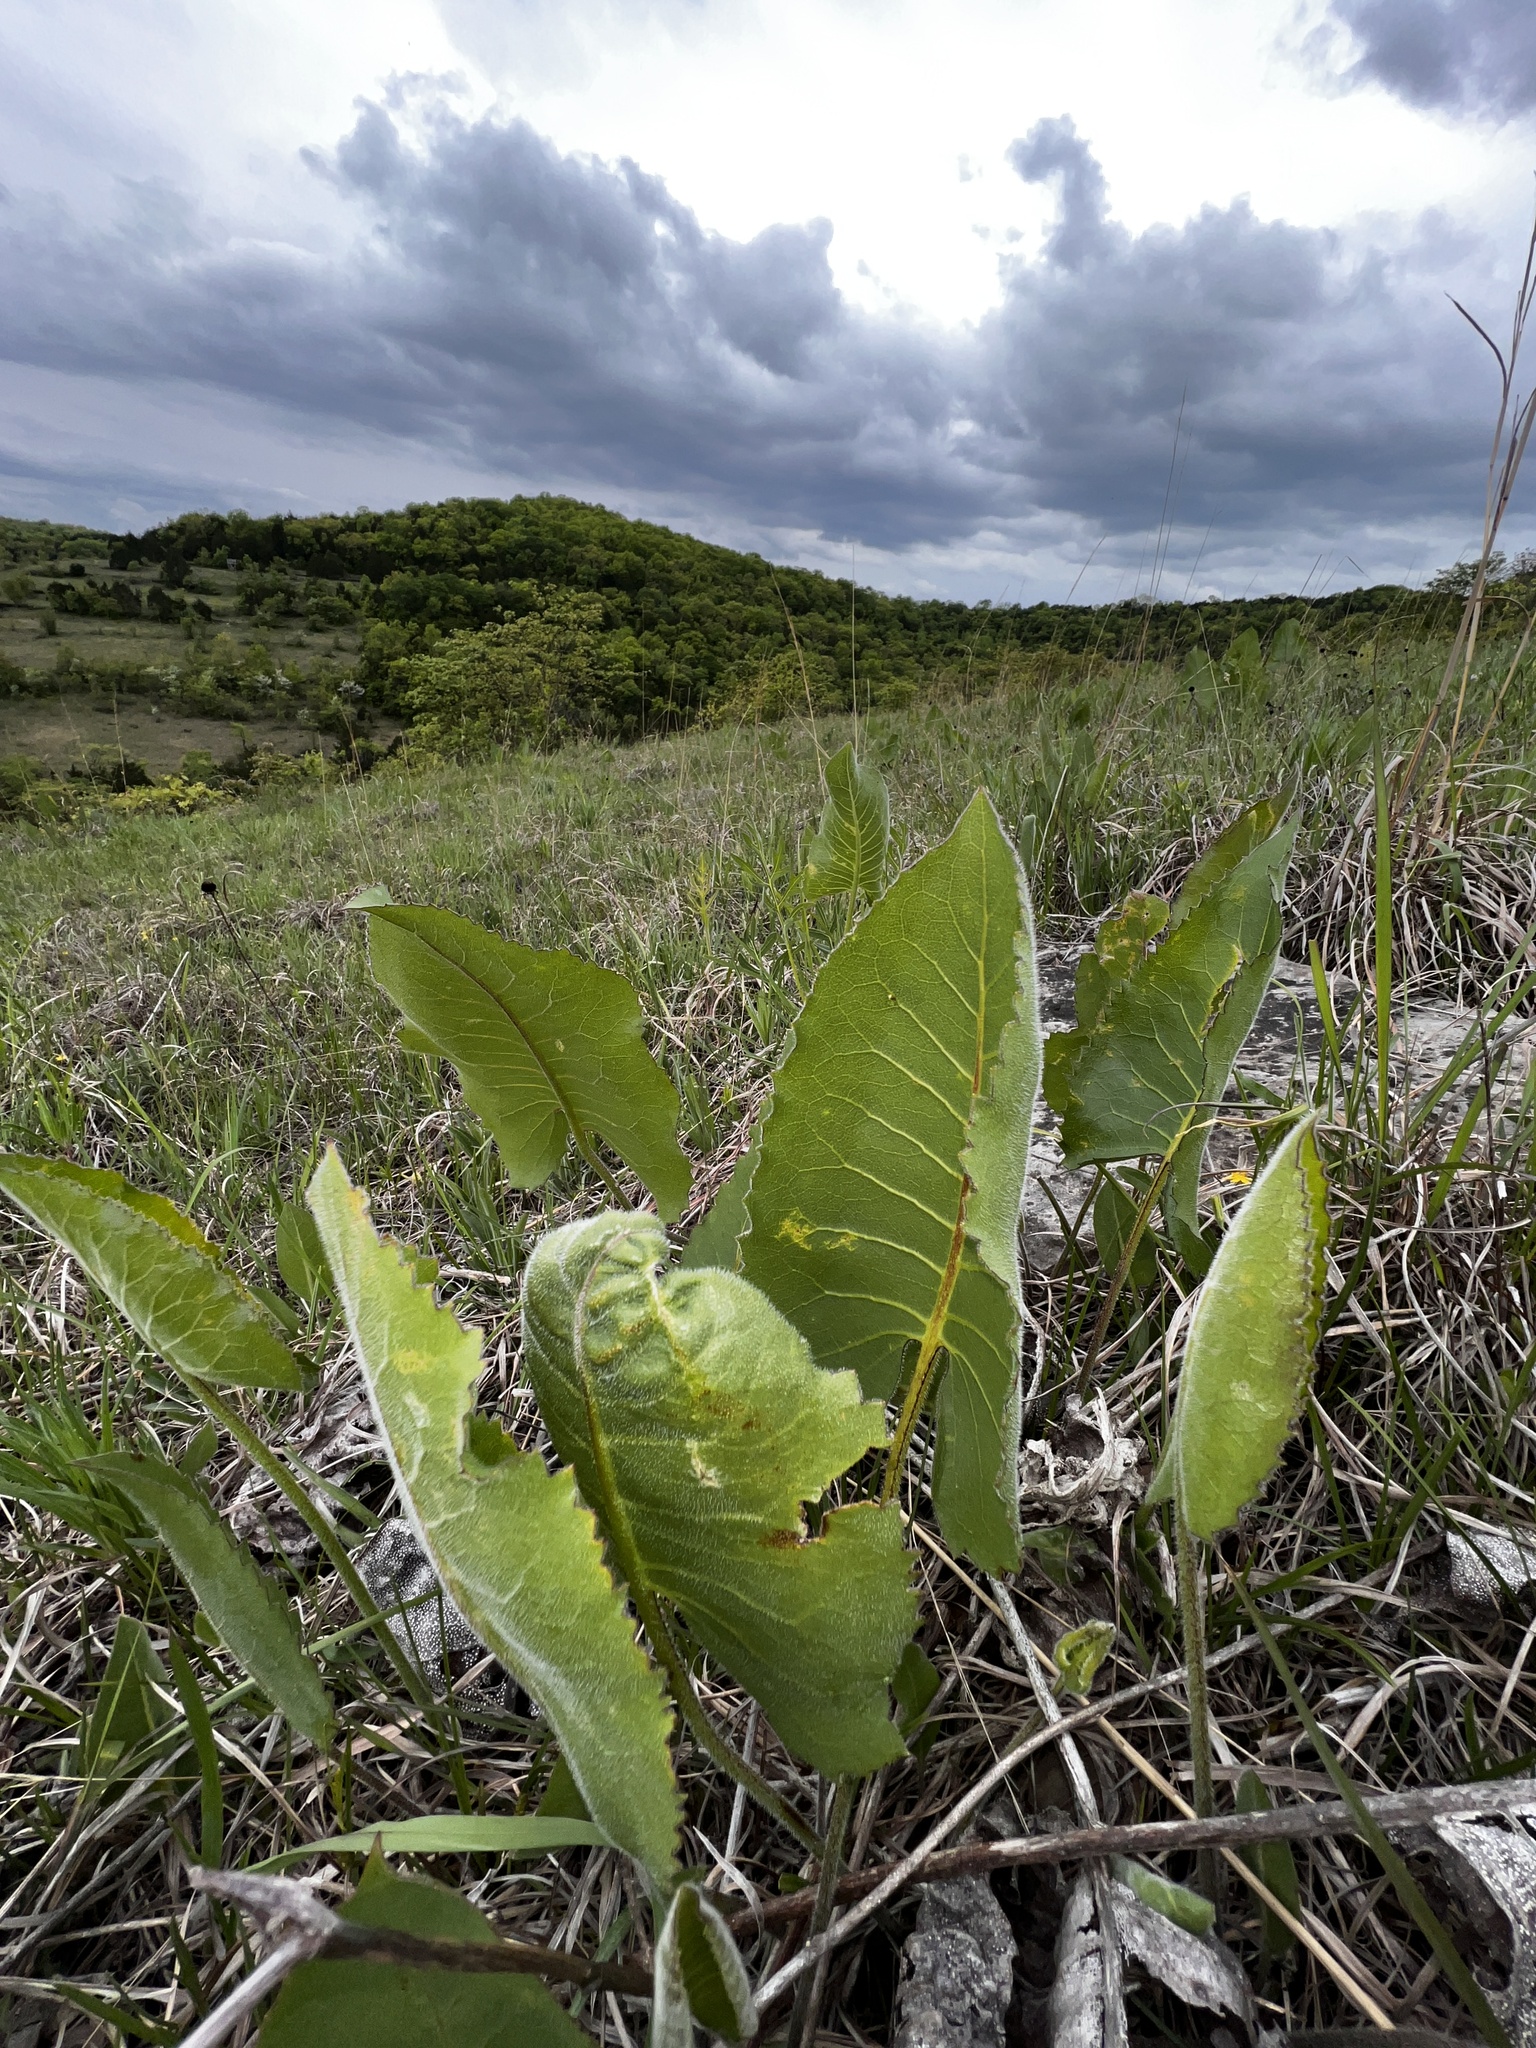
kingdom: Plantae
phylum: Tracheophyta
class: Magnoliopsida
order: Asterales
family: Asteraceae
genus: Silphium
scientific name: Silphium terebinthinaceum
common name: Basal-leaf rosinweed
